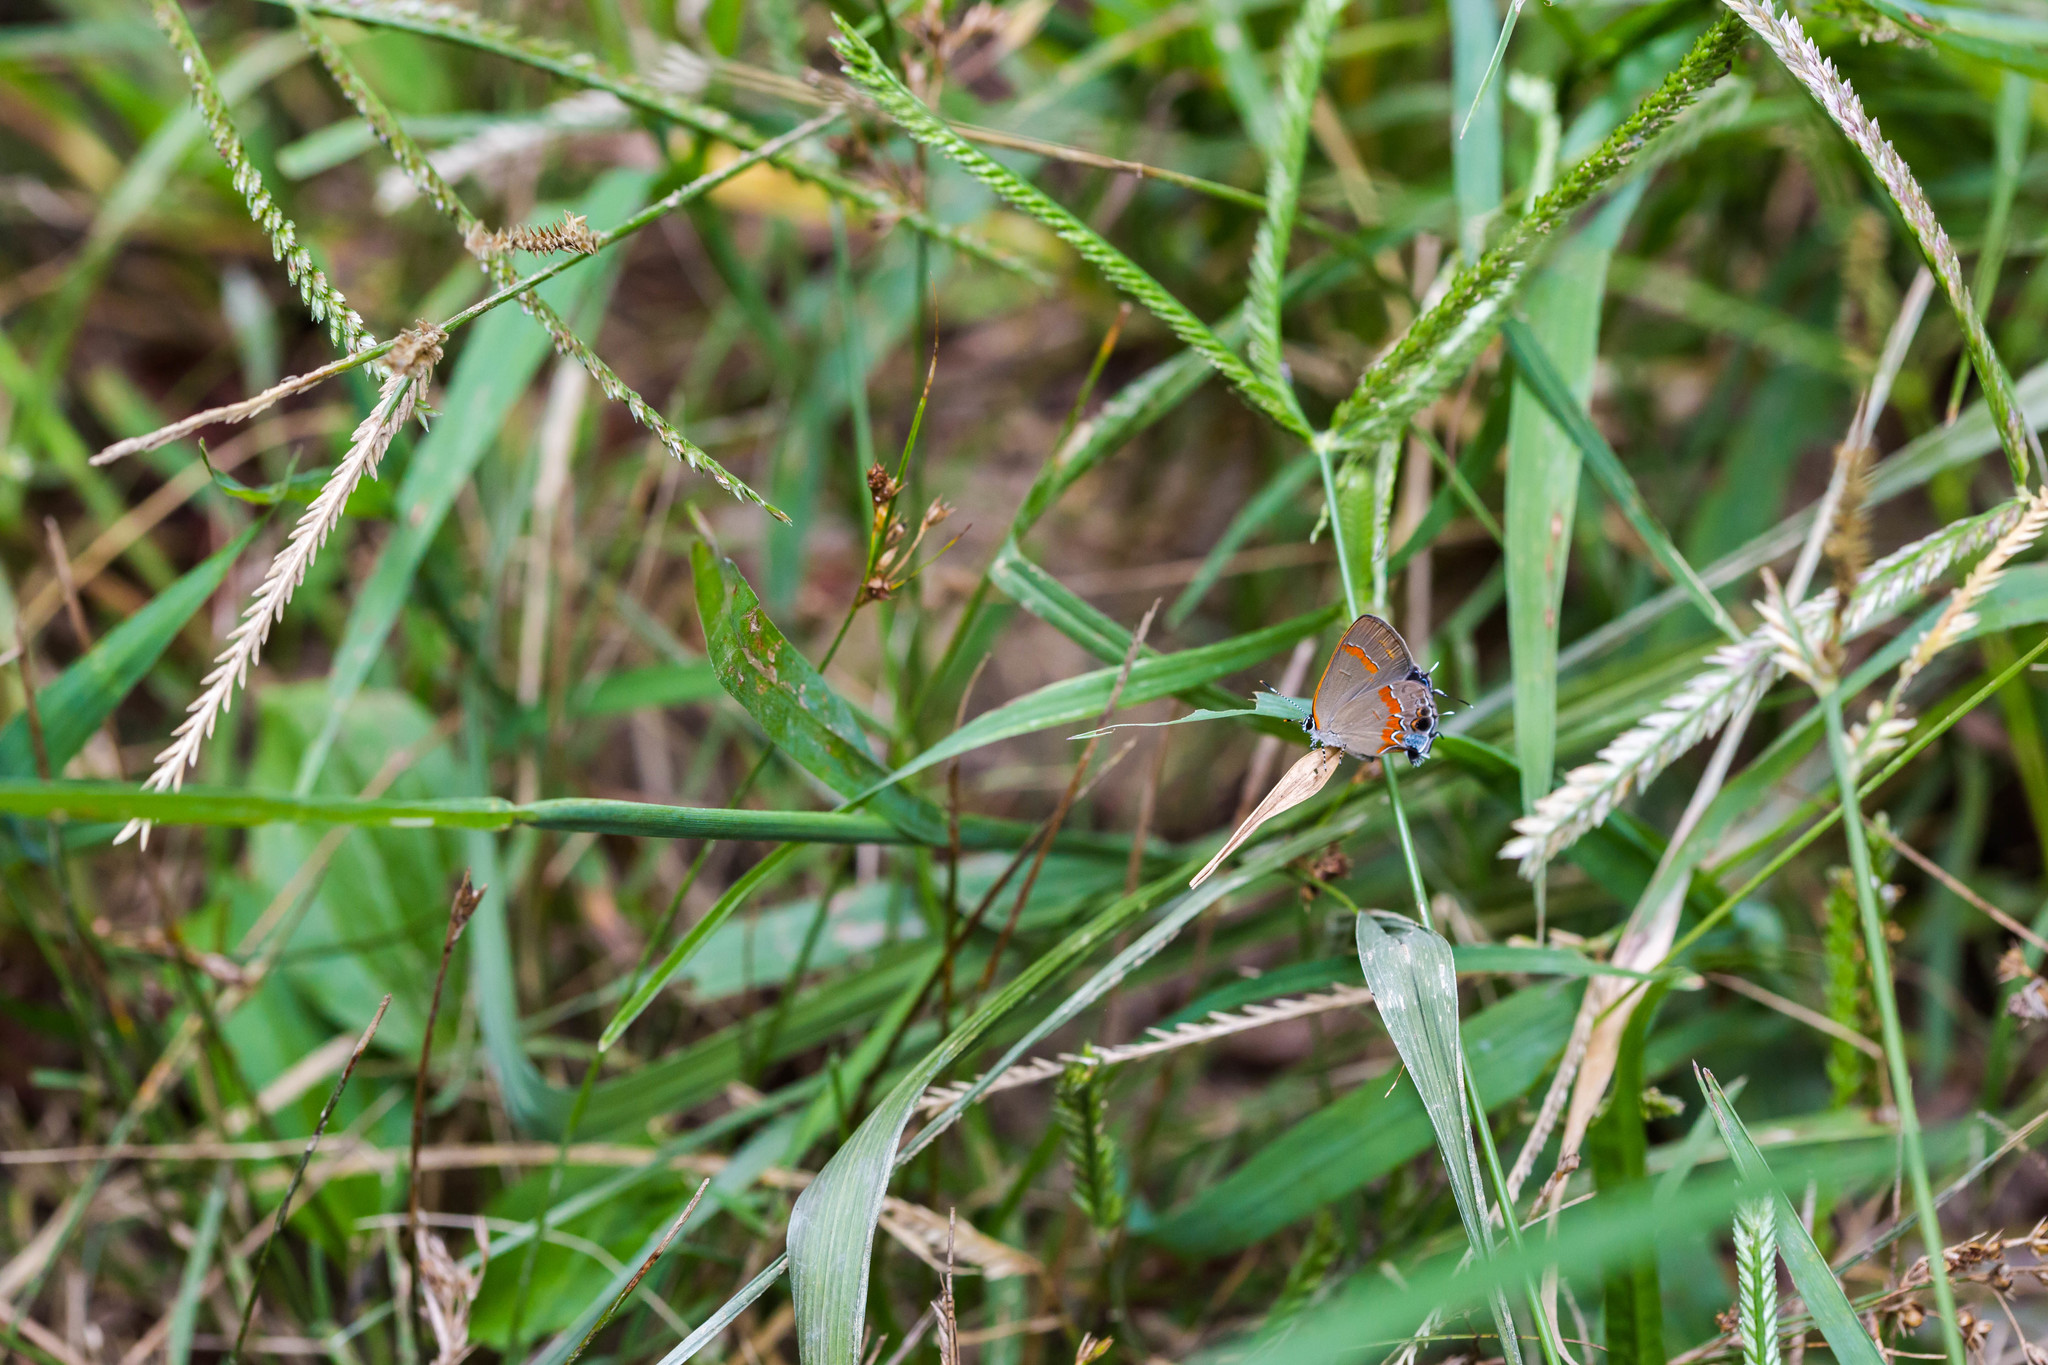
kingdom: Animalia
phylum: Arthropoda
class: Insecta
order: Lepidoptera
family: Lycaenidae
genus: Calycopis
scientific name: Calycopis cecrops
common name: Red-banded hairstreak
